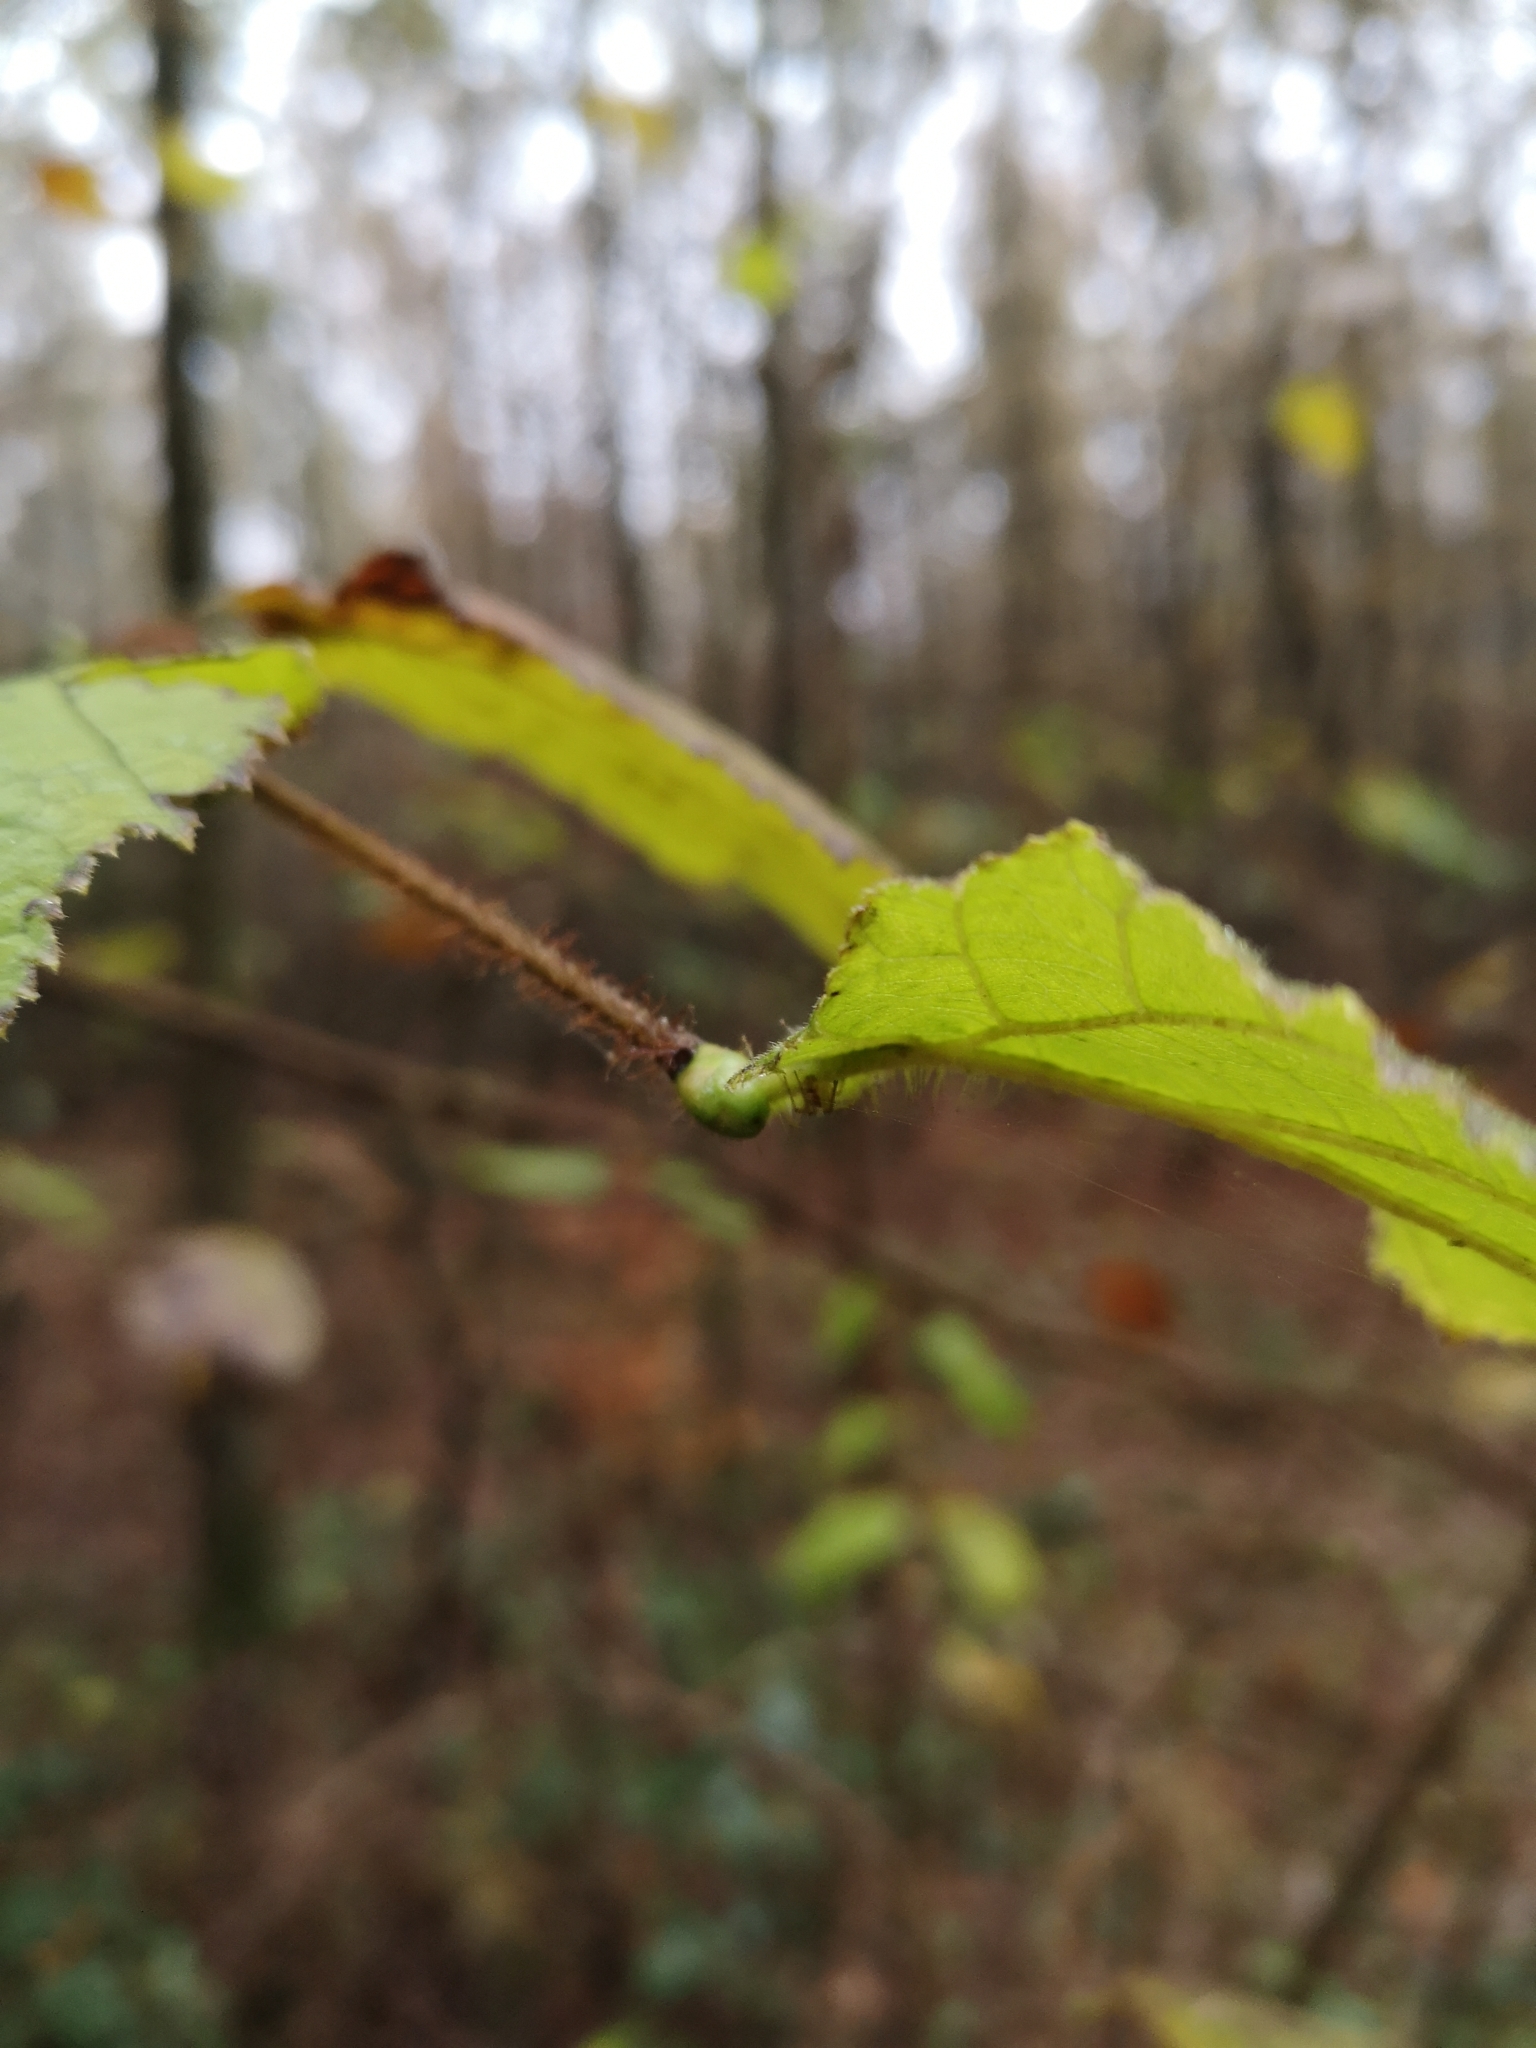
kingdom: Plantae
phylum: Tracheophyta
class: Magnoliopsida
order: Fagales
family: Betulaceae
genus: Corylus
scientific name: Corylus avellana
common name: European hazel
